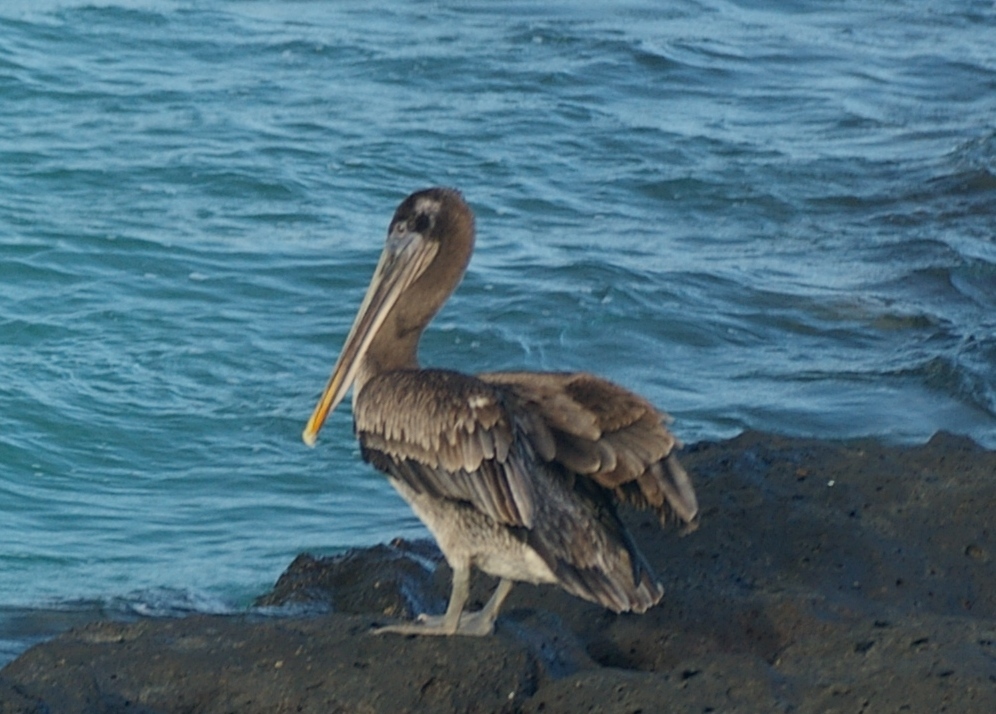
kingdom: Animalia
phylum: Chordata
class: Aves
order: Pelecaniformes
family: Pelecanidae
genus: Pelecanus
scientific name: Pelecanus occidentalis
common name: Brown pelican
